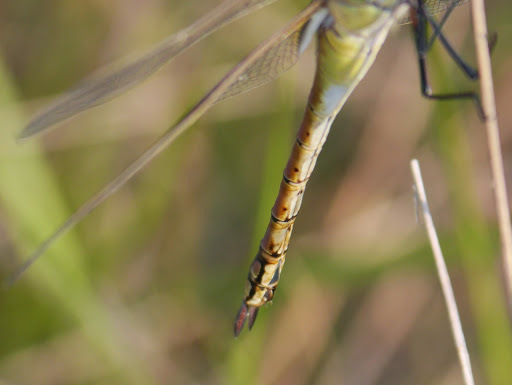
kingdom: Animalia
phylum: Arthropoda
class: Insecta
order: Odonata
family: Aeshnidae
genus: Anax
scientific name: Anax ephippiger
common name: Vagrant emperor
